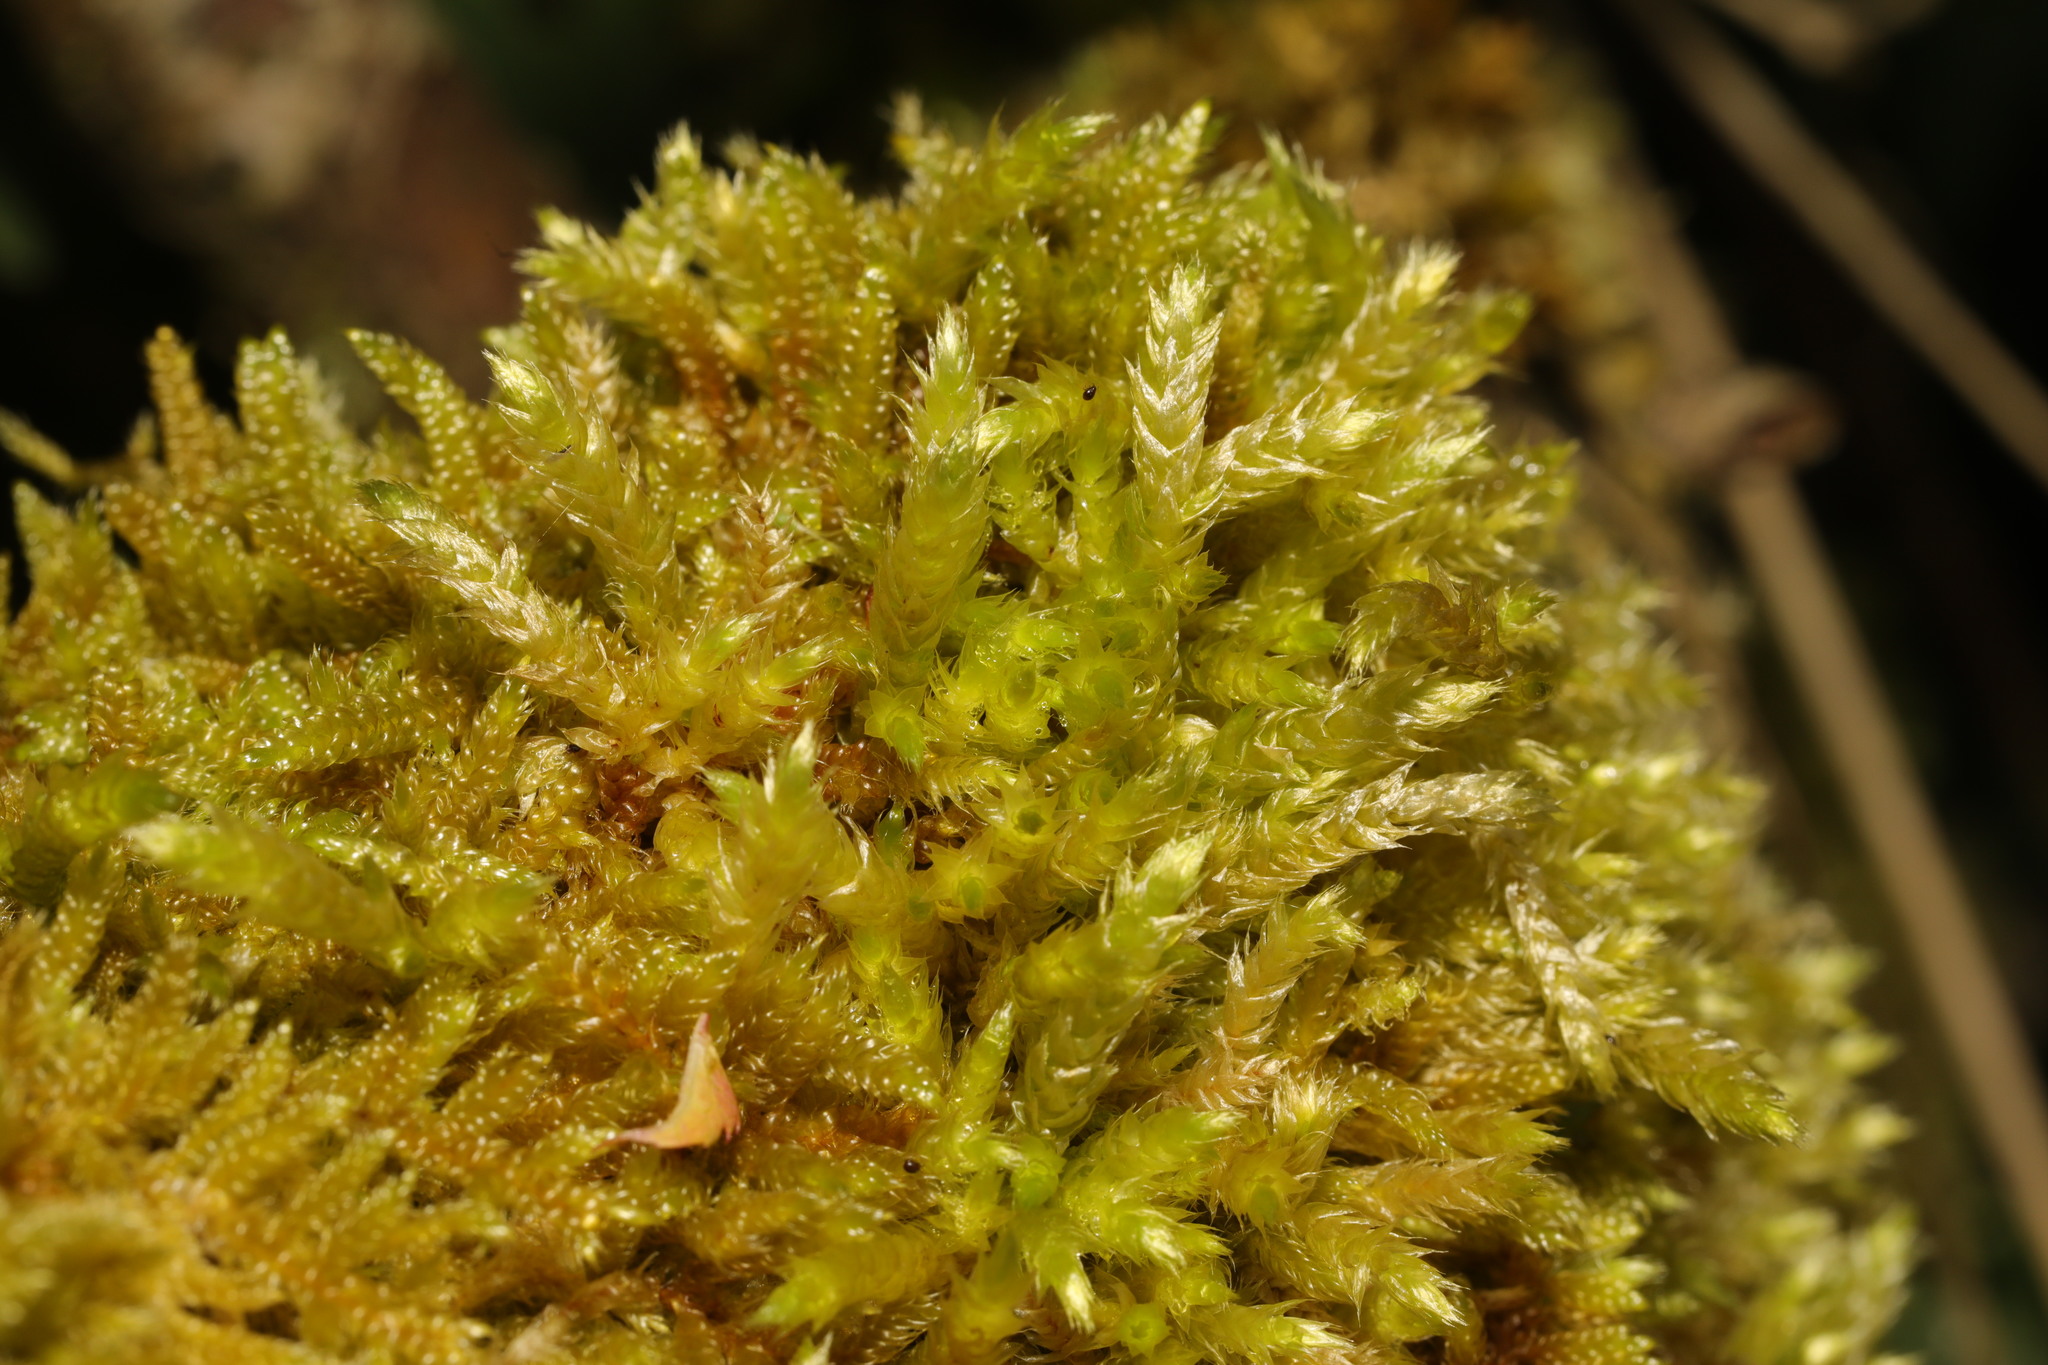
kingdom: Plantae
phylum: Bryophyta
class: Bryopsida
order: Hypnales
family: Hypnaceae
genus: Hypnum
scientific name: Hypnum cupressiforme
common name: Cypress-leaved plait-moss
